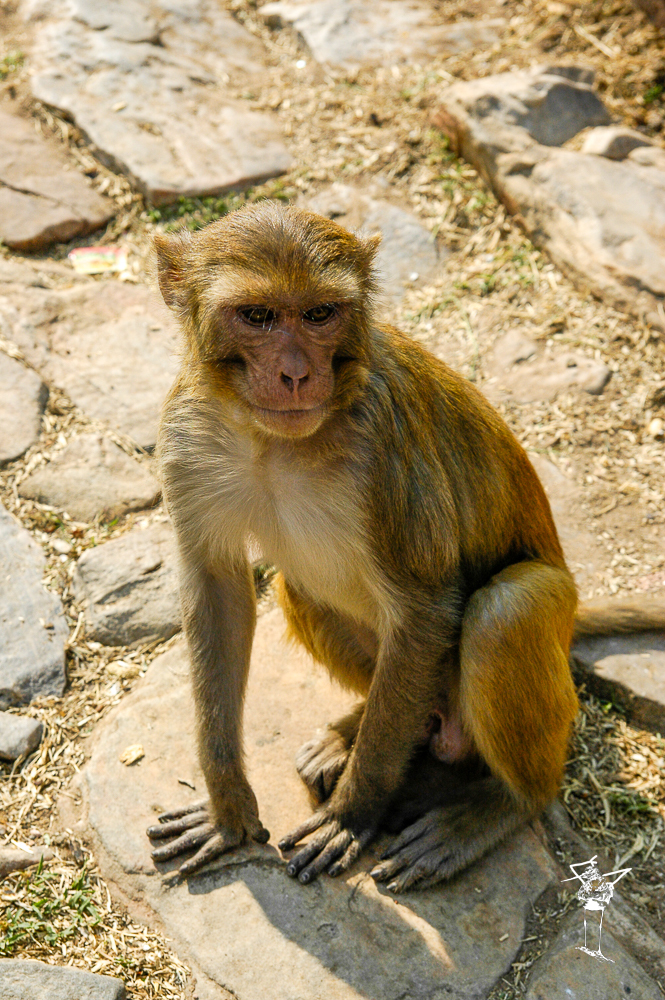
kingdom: Animalia
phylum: Chordata
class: Mammalia
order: Primates
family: Cercopithecidae
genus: Macaca
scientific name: Macaca mulatta
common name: Rhesus monkey
